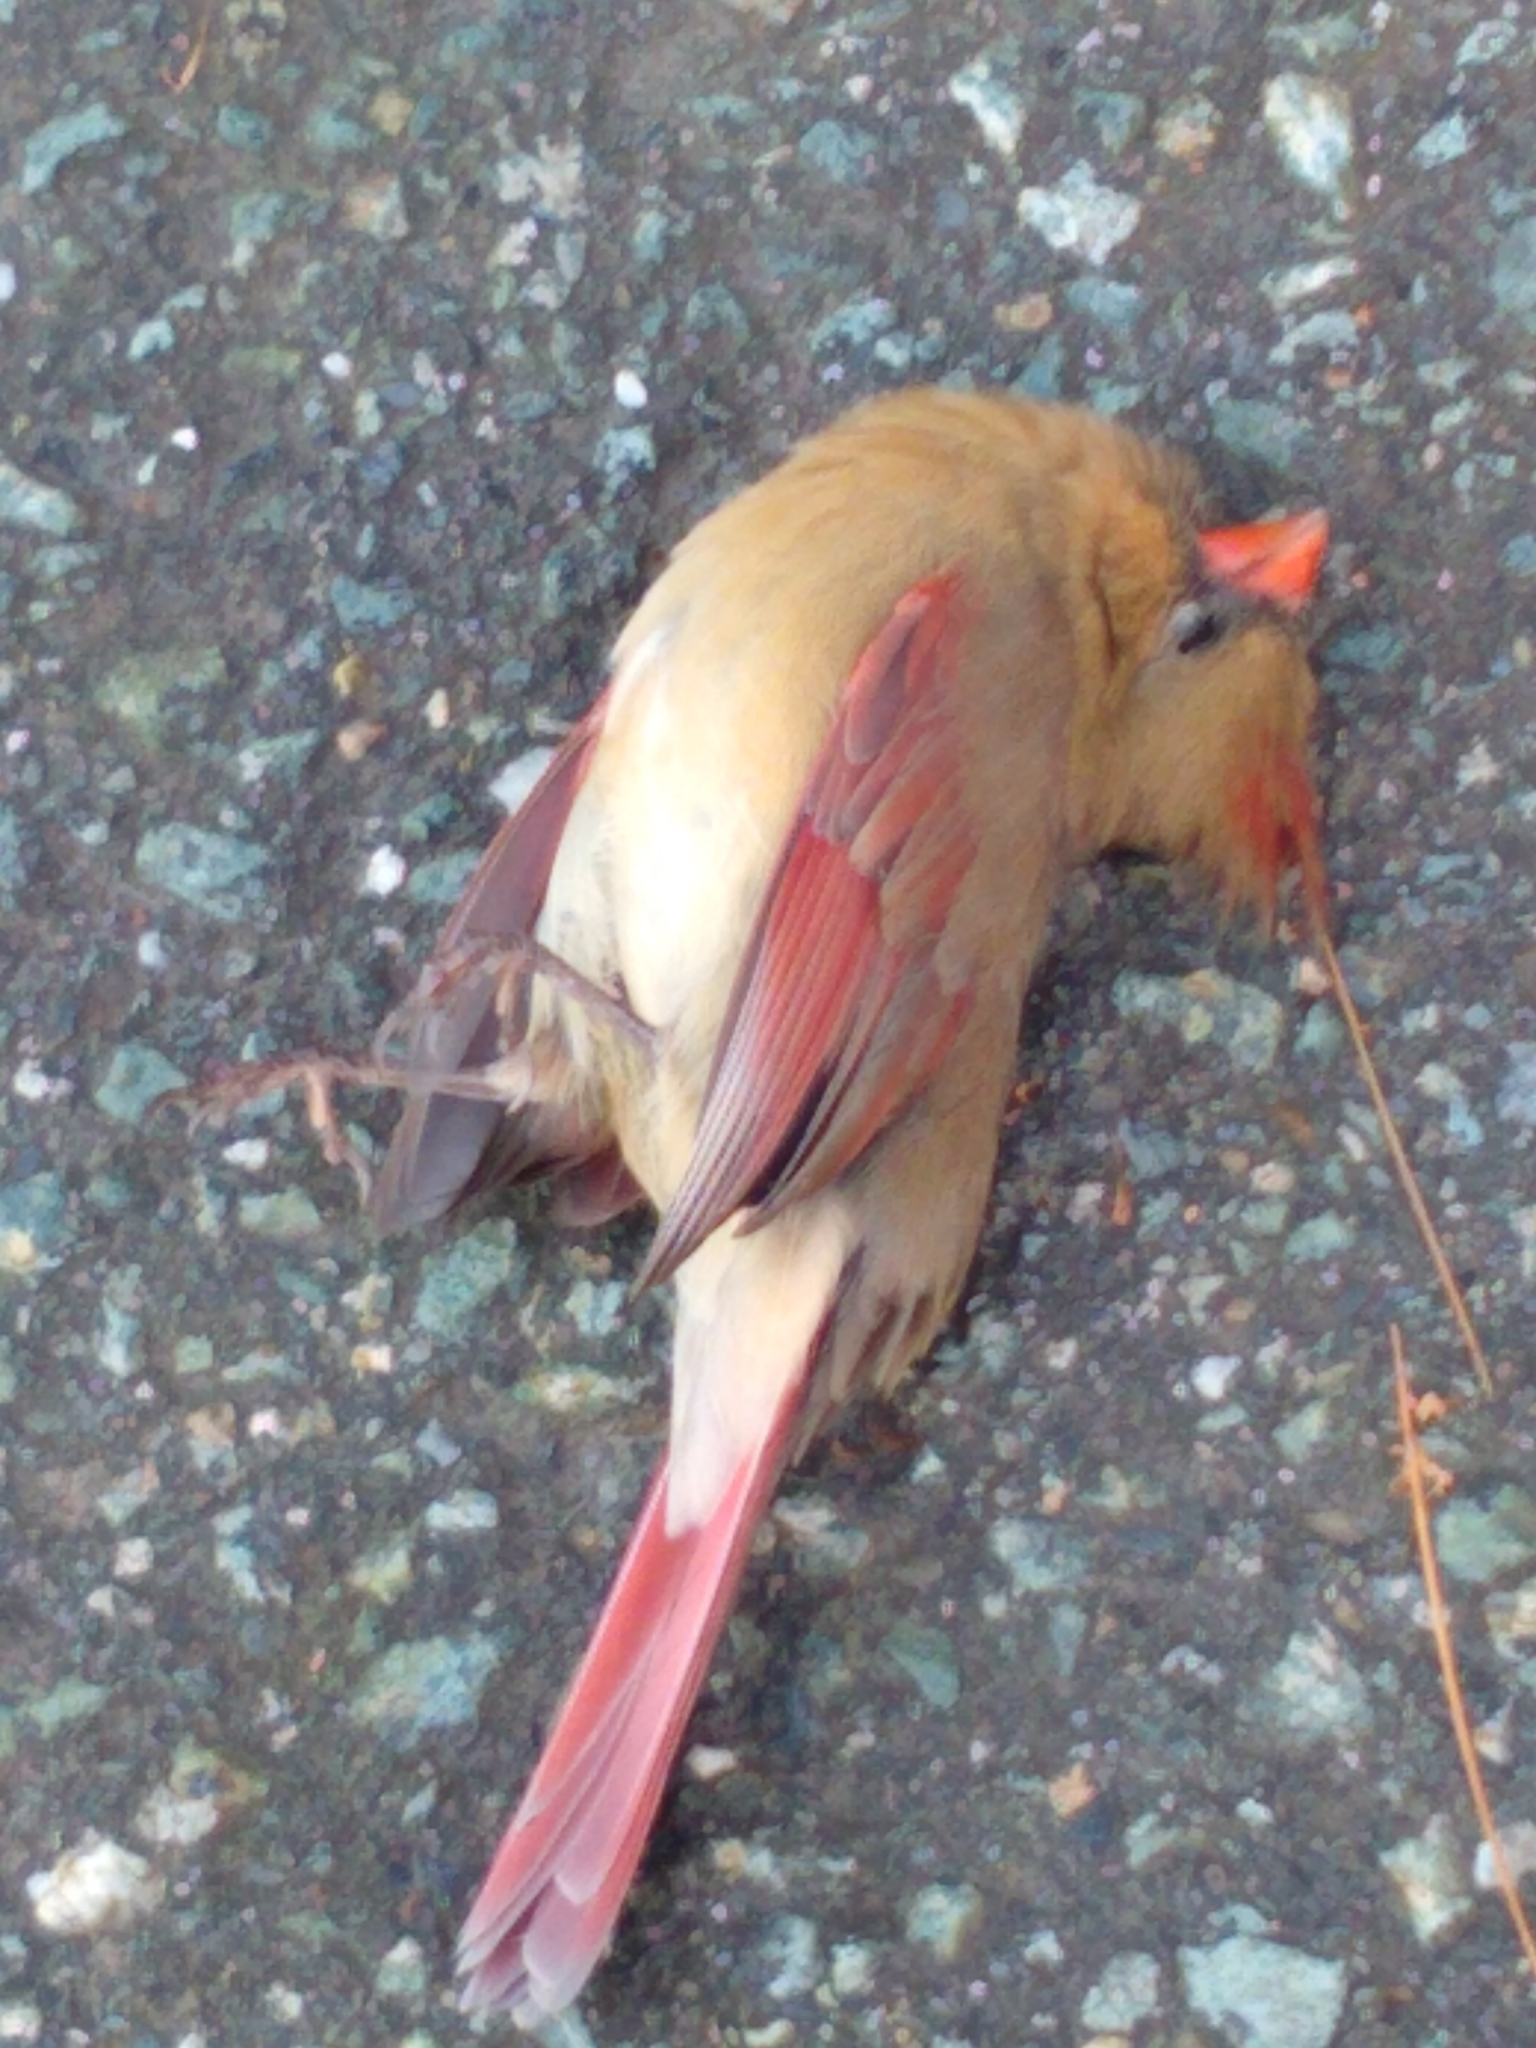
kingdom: Animalia
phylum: Chordata
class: Aves
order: Passeriformes
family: Cardinalidae
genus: Cardinalis
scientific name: Cardinalis cardinalis
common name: Northern cardinal
